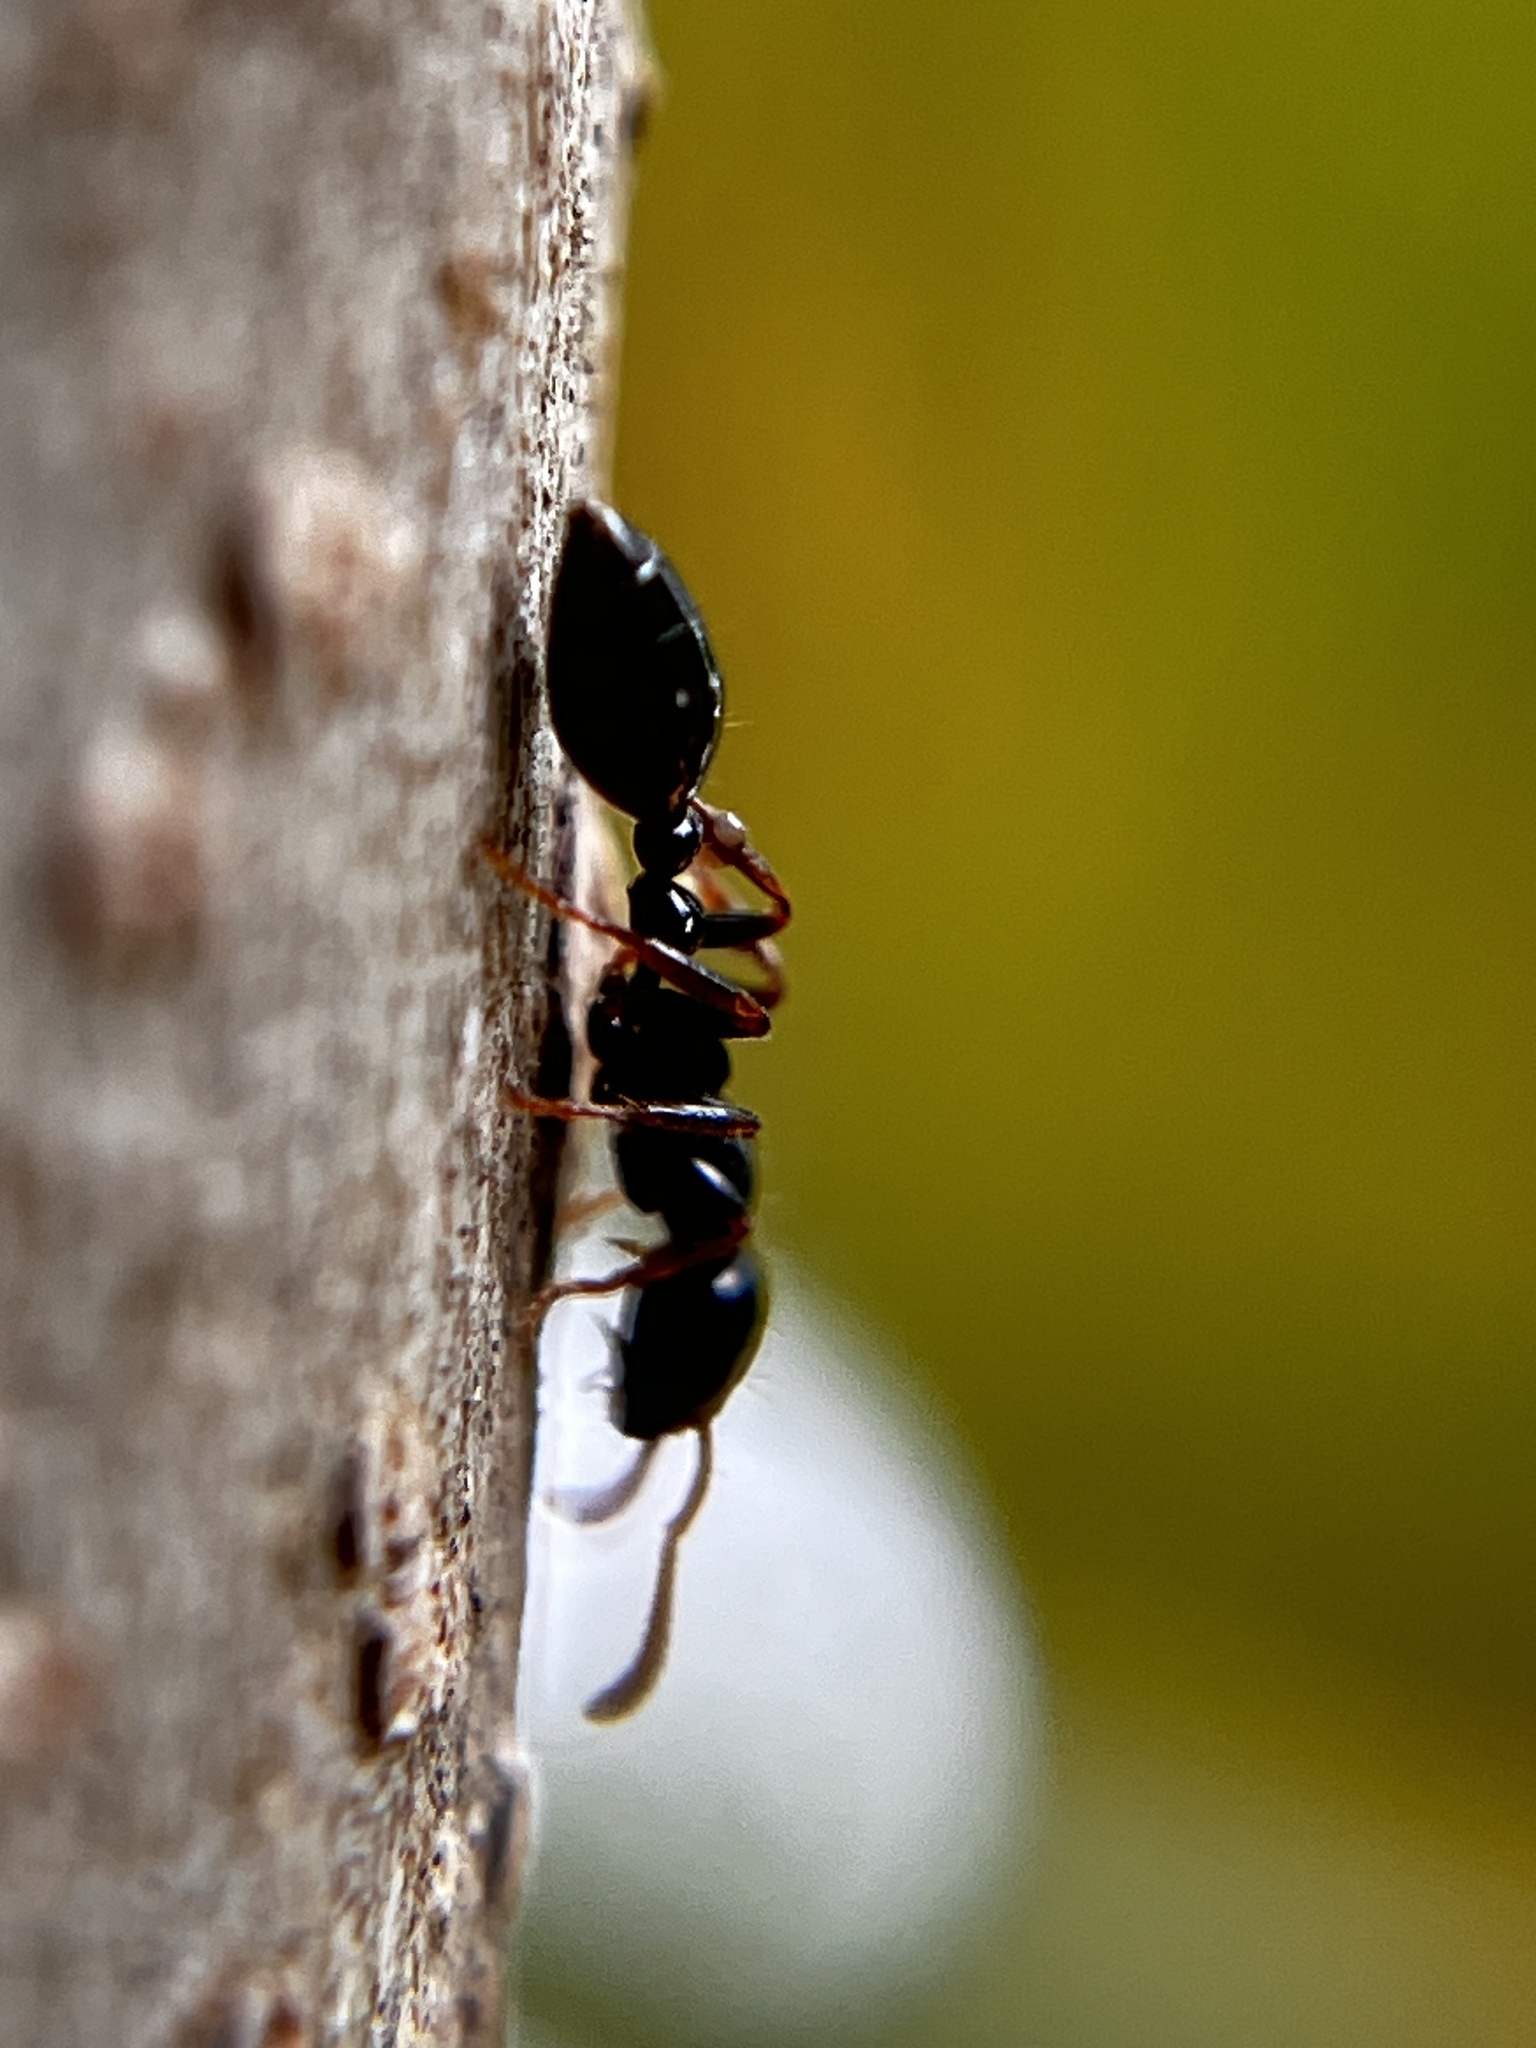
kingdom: Animalia
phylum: Arthropoda
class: Insecta
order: Hymenoptera
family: Formicidae
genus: Tetraponera
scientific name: Tetraponera allaborans
